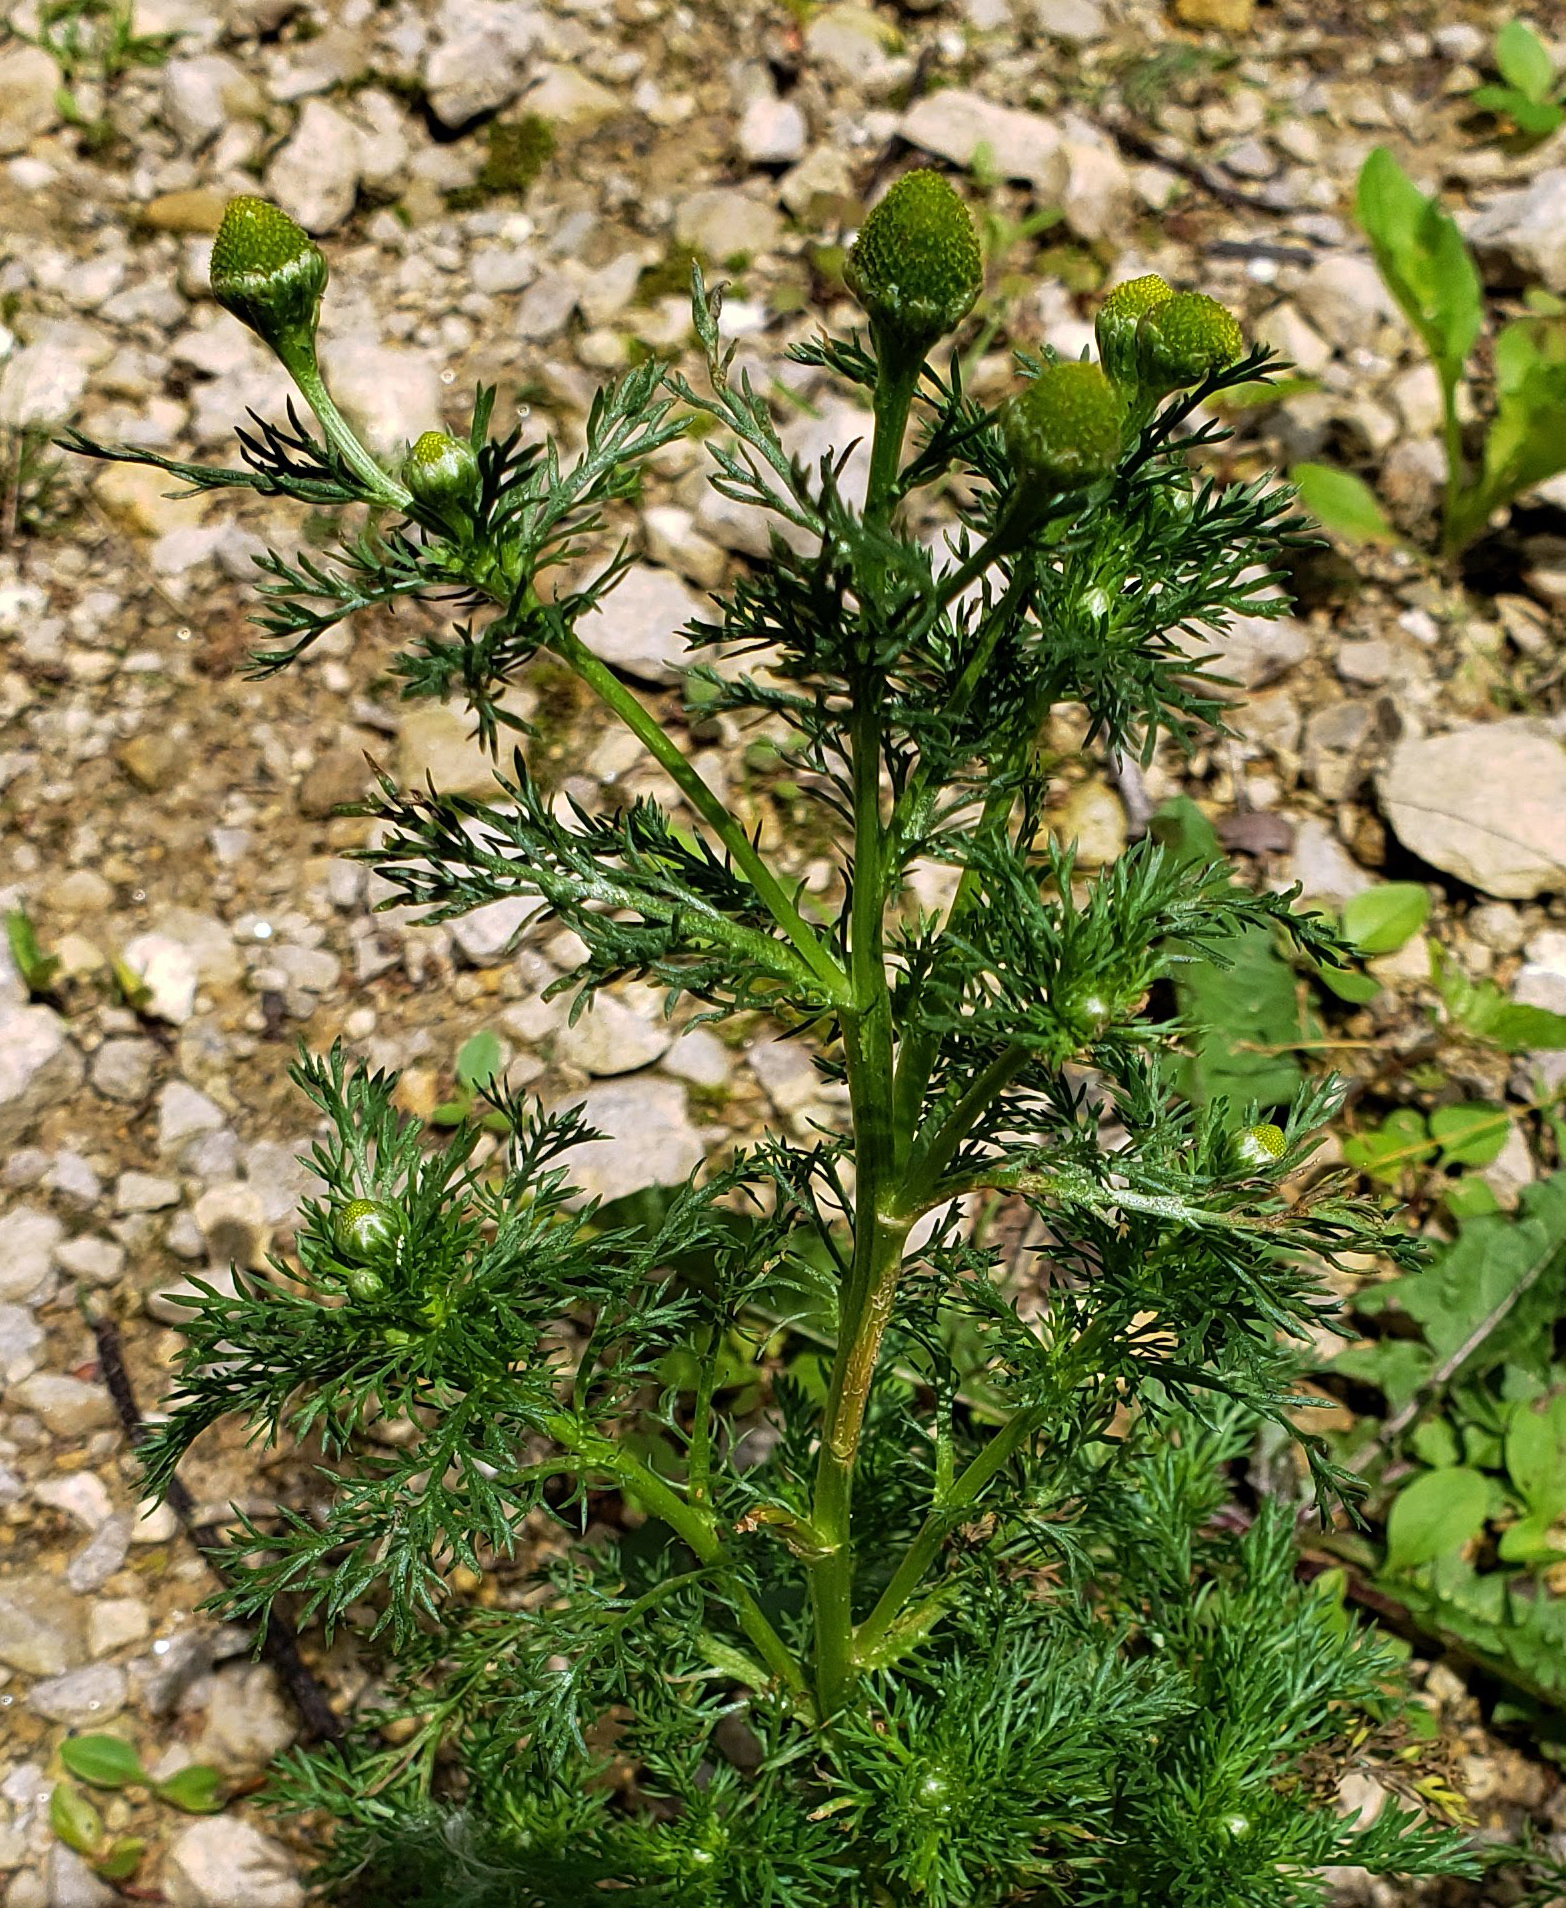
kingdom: Plantae
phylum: Tracheophyta
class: Magnoliopsida
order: Asterales
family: Asteraceae
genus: Matricaria
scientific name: Matricaria discoidea
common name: Disc mayweed
